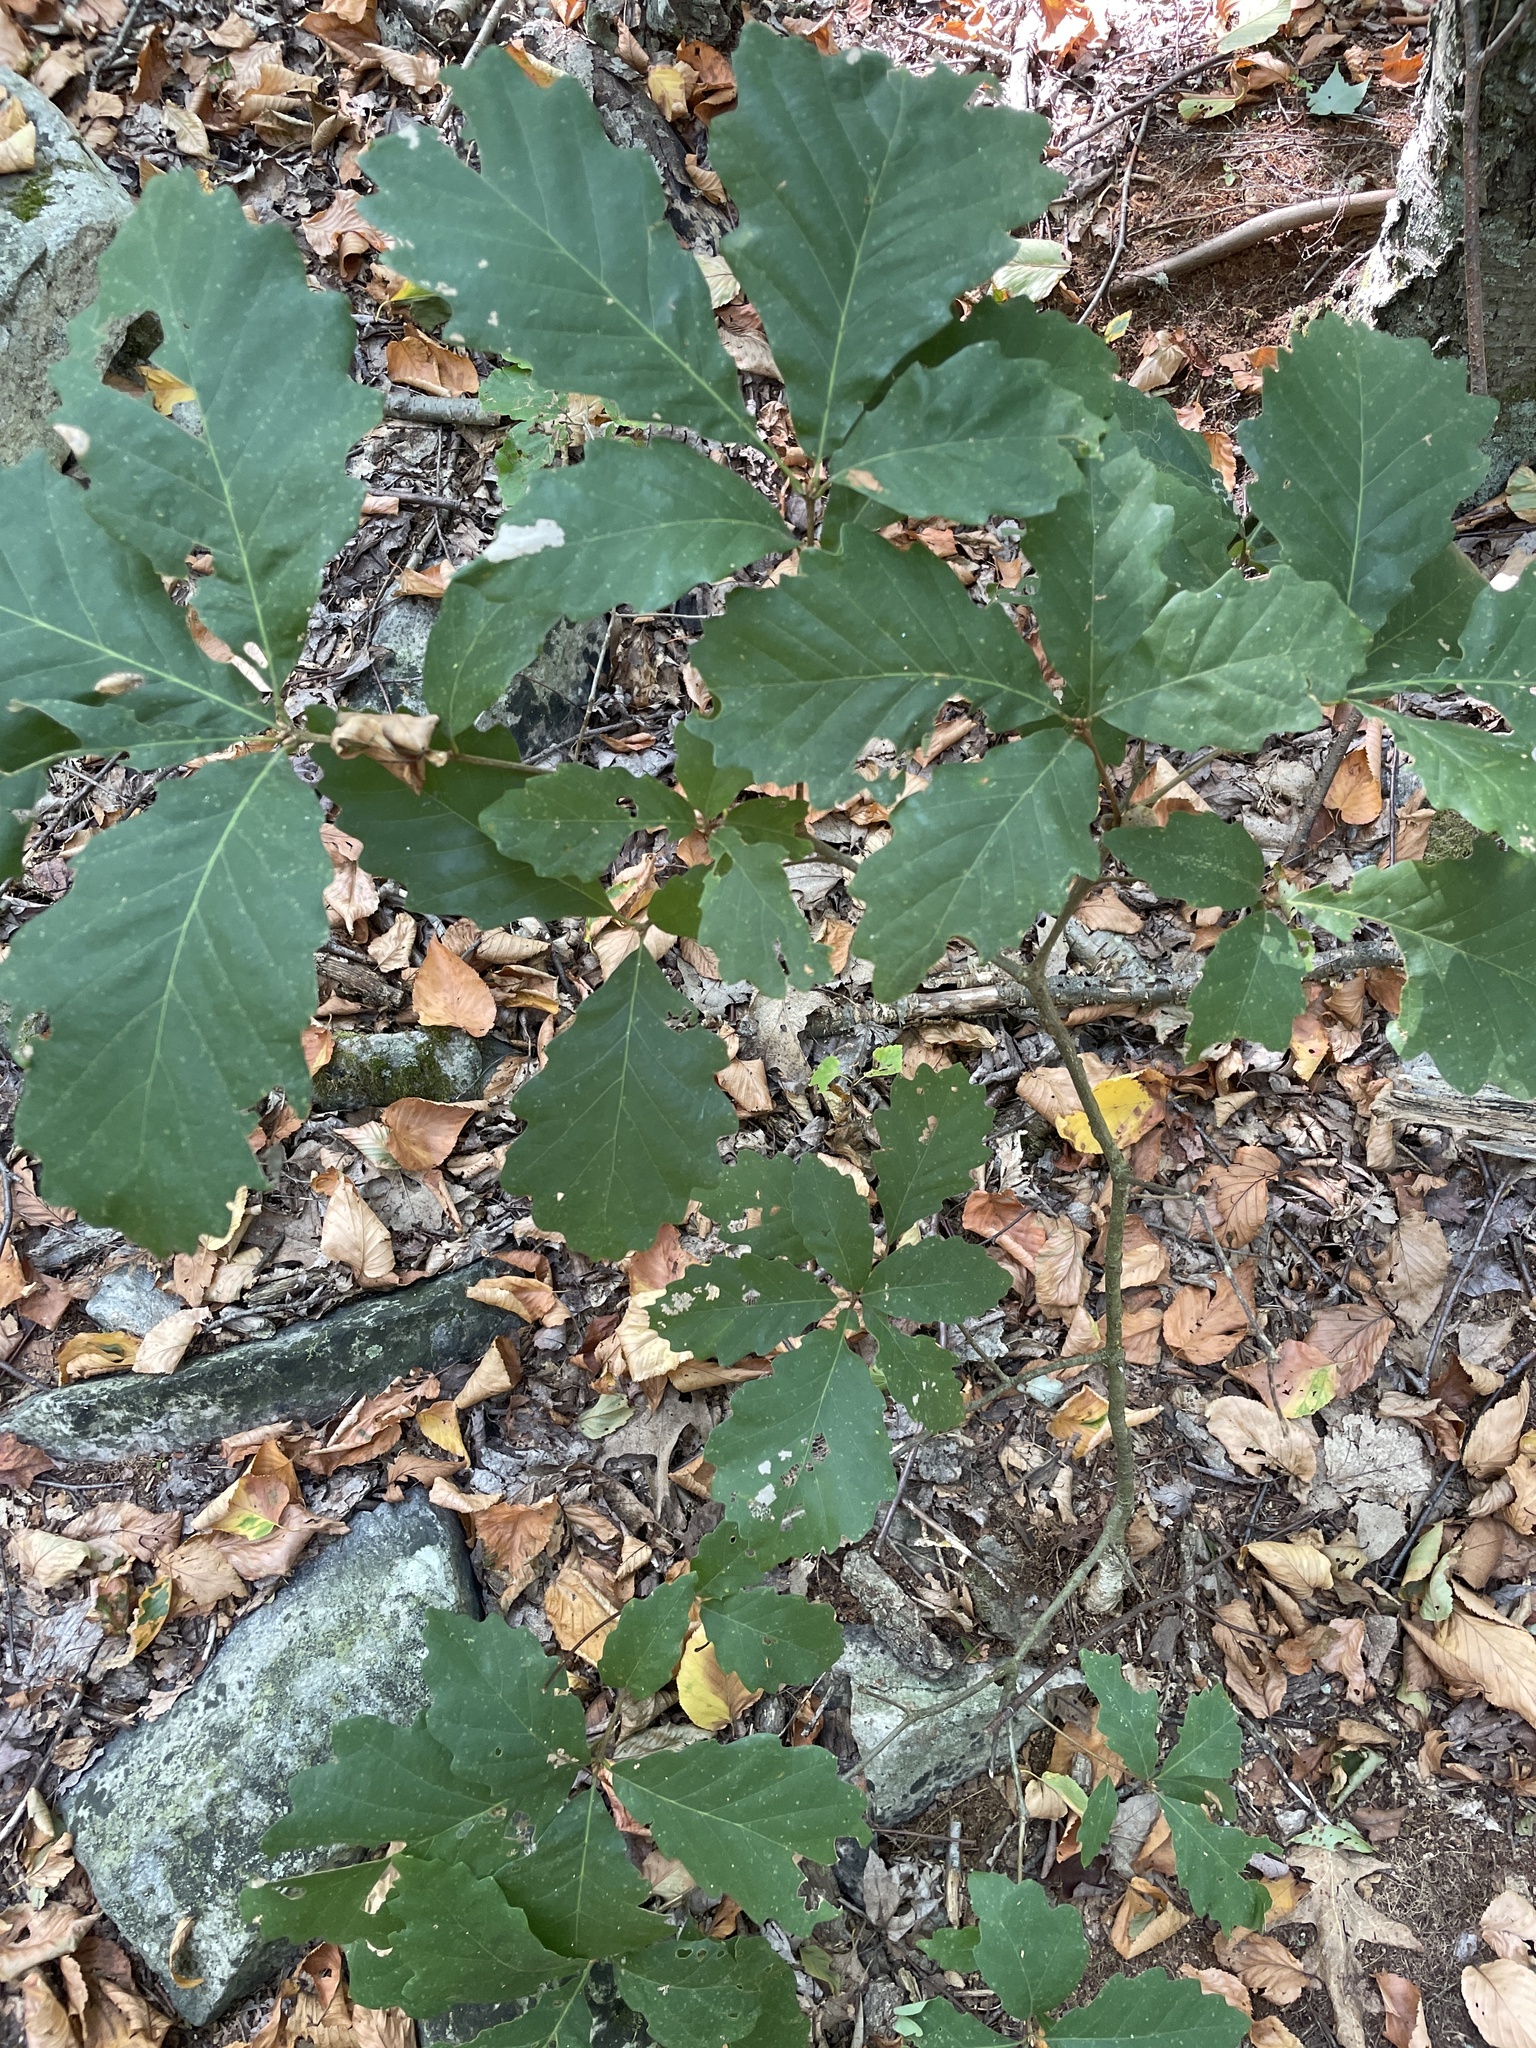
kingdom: Animalia
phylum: Arthropoda
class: Insecta
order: Hymenoptera
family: Cynipidae
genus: Holocynips
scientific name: Holocynips
